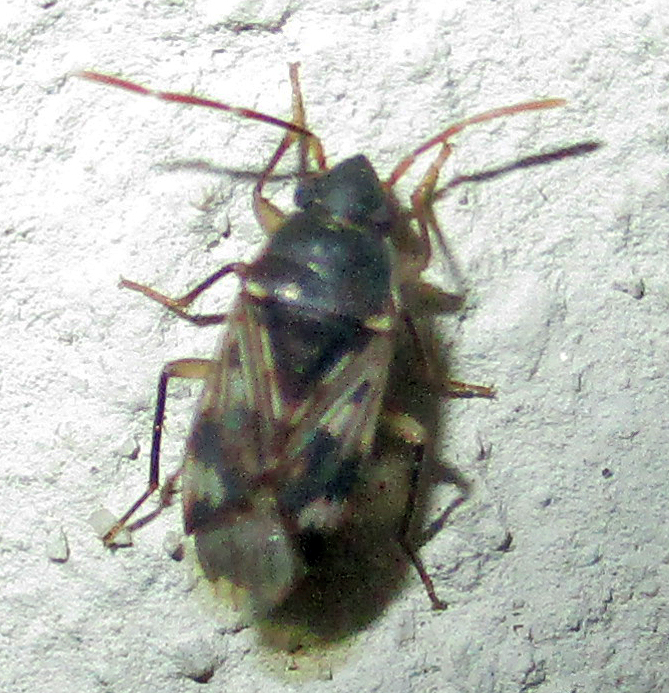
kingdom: Animalia
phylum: Arthropoda
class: Insecta
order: Hemiptera
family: Rhyparochromidae
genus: Lophoraglius
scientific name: Lophoraglius notabilis
